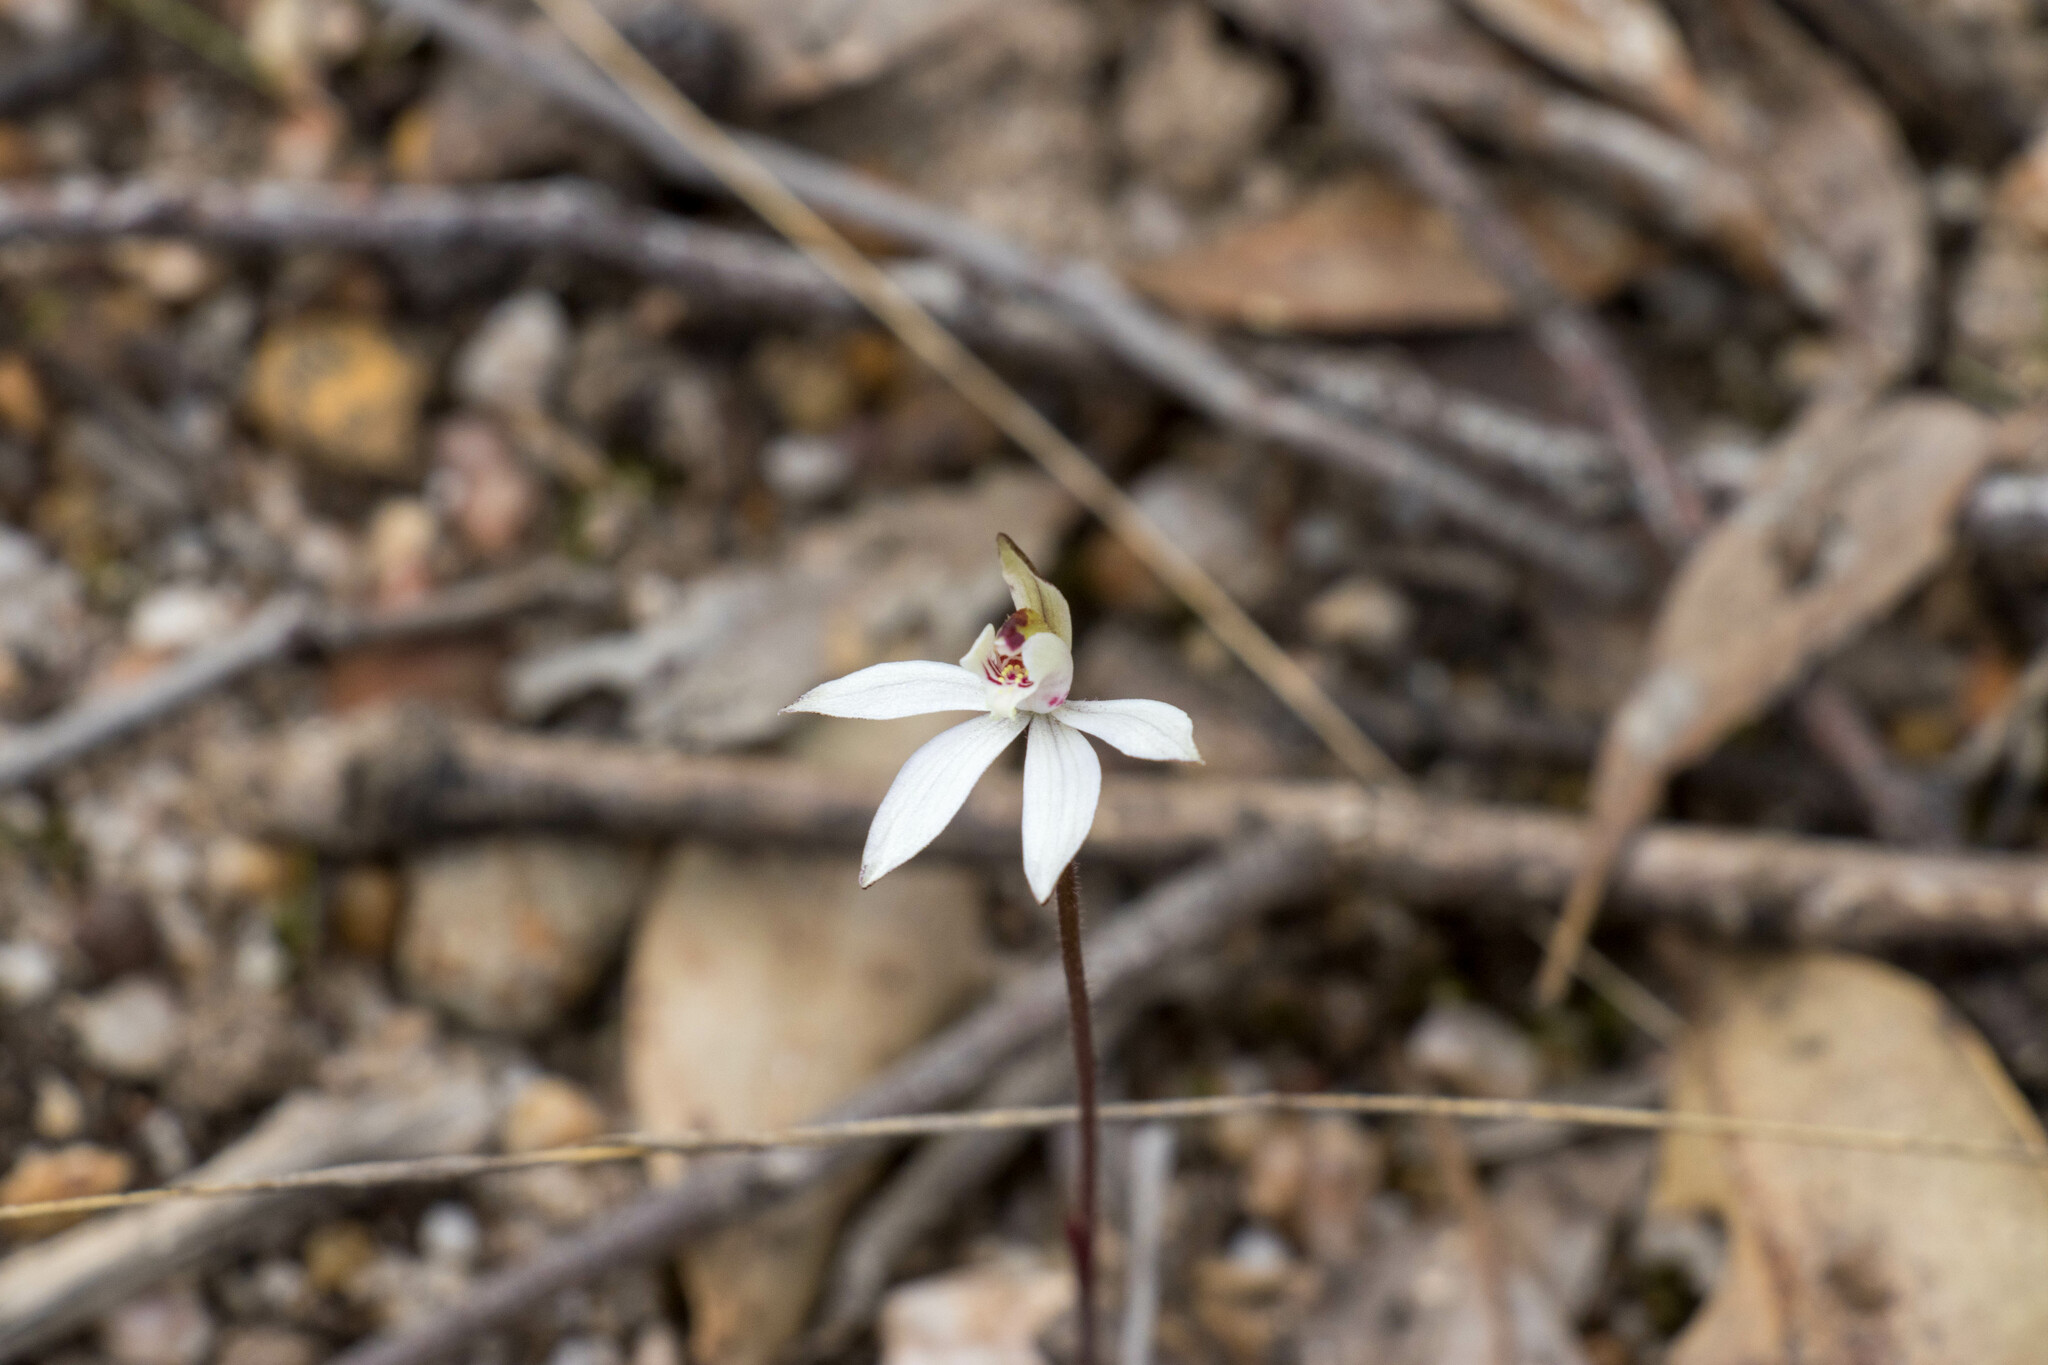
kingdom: Plantae
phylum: Tracheophyta
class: Liliopsida
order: Asparagales
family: Orchidaceae
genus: Caladenia
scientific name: Caladenia fuscata
